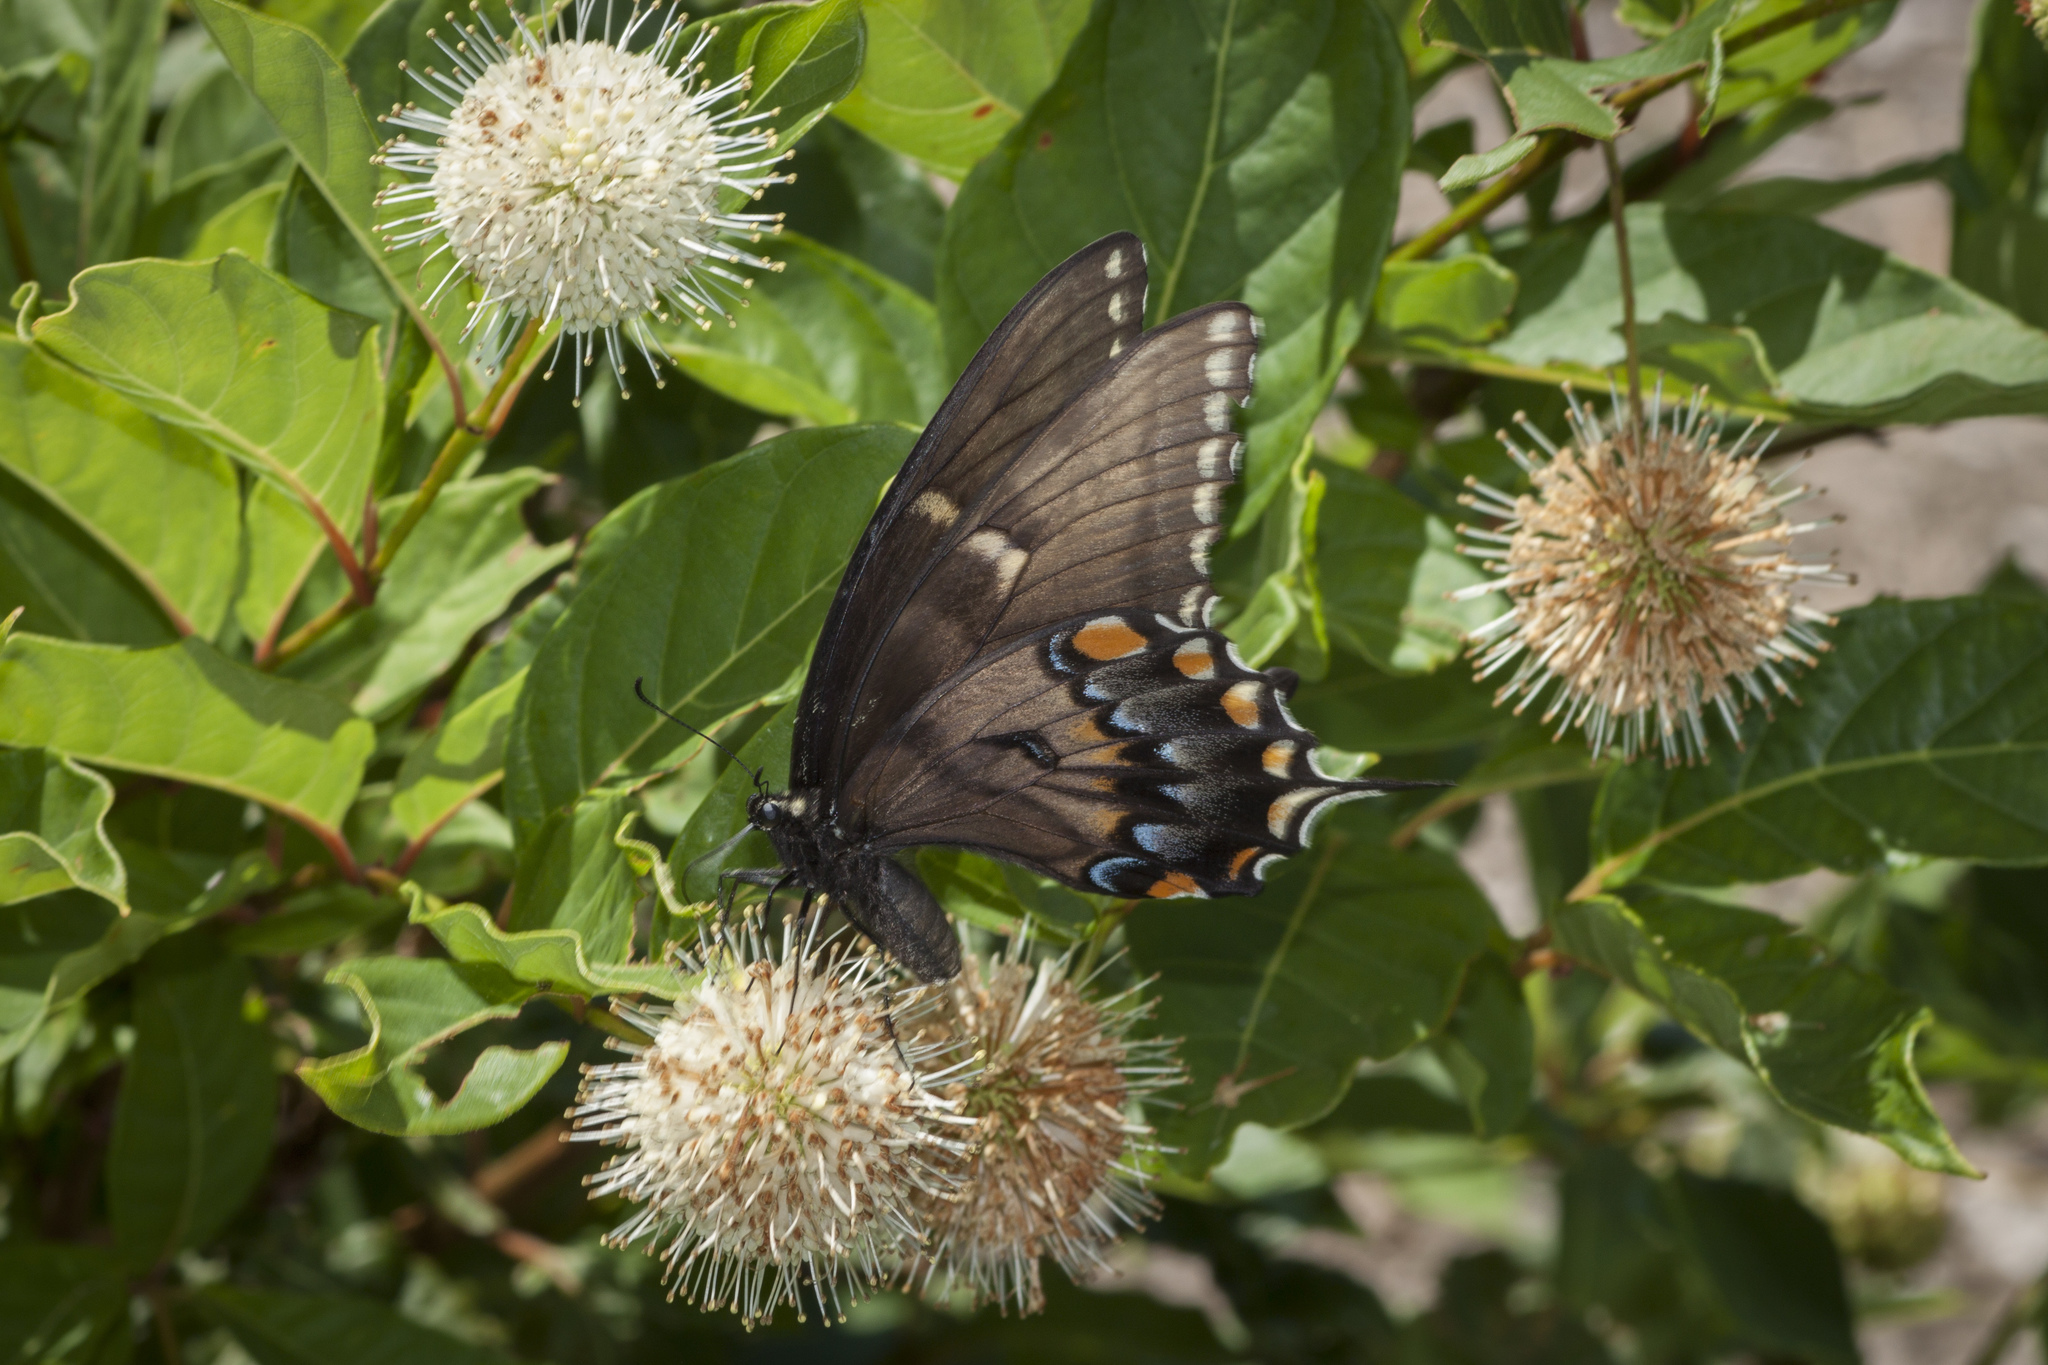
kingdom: Animalia
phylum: Arthropoda
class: Insecta
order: Lepidoptera
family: Papilionidae
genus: Papilio
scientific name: Papilio glaucus
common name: Tiger swallowtail
